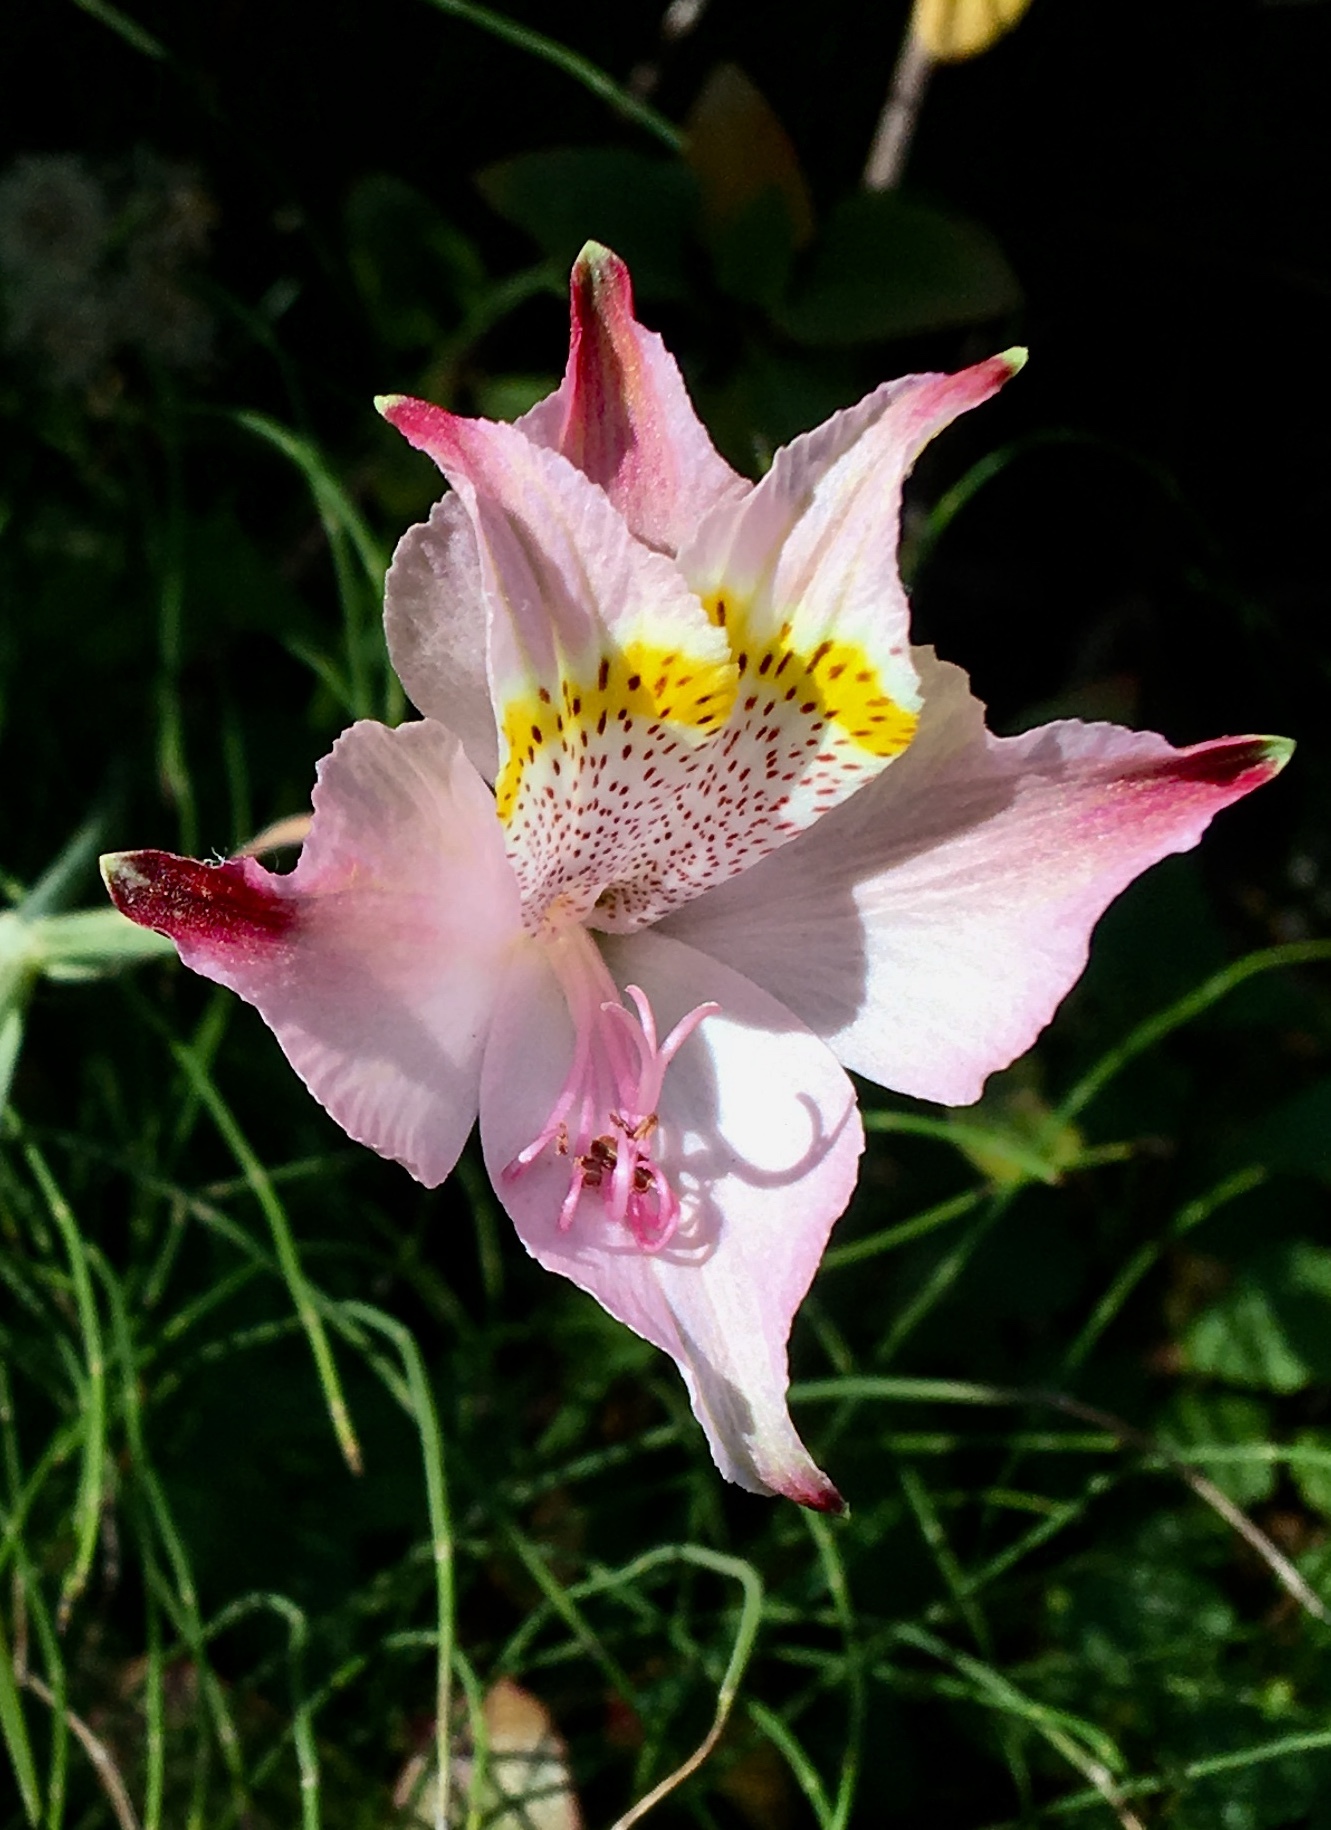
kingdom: Plantae
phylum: Tracheophyta
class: Liliopsida
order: Liliales
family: Alstroemeriaceae
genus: Alstroemeria
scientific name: Alstroemeria hookeri
